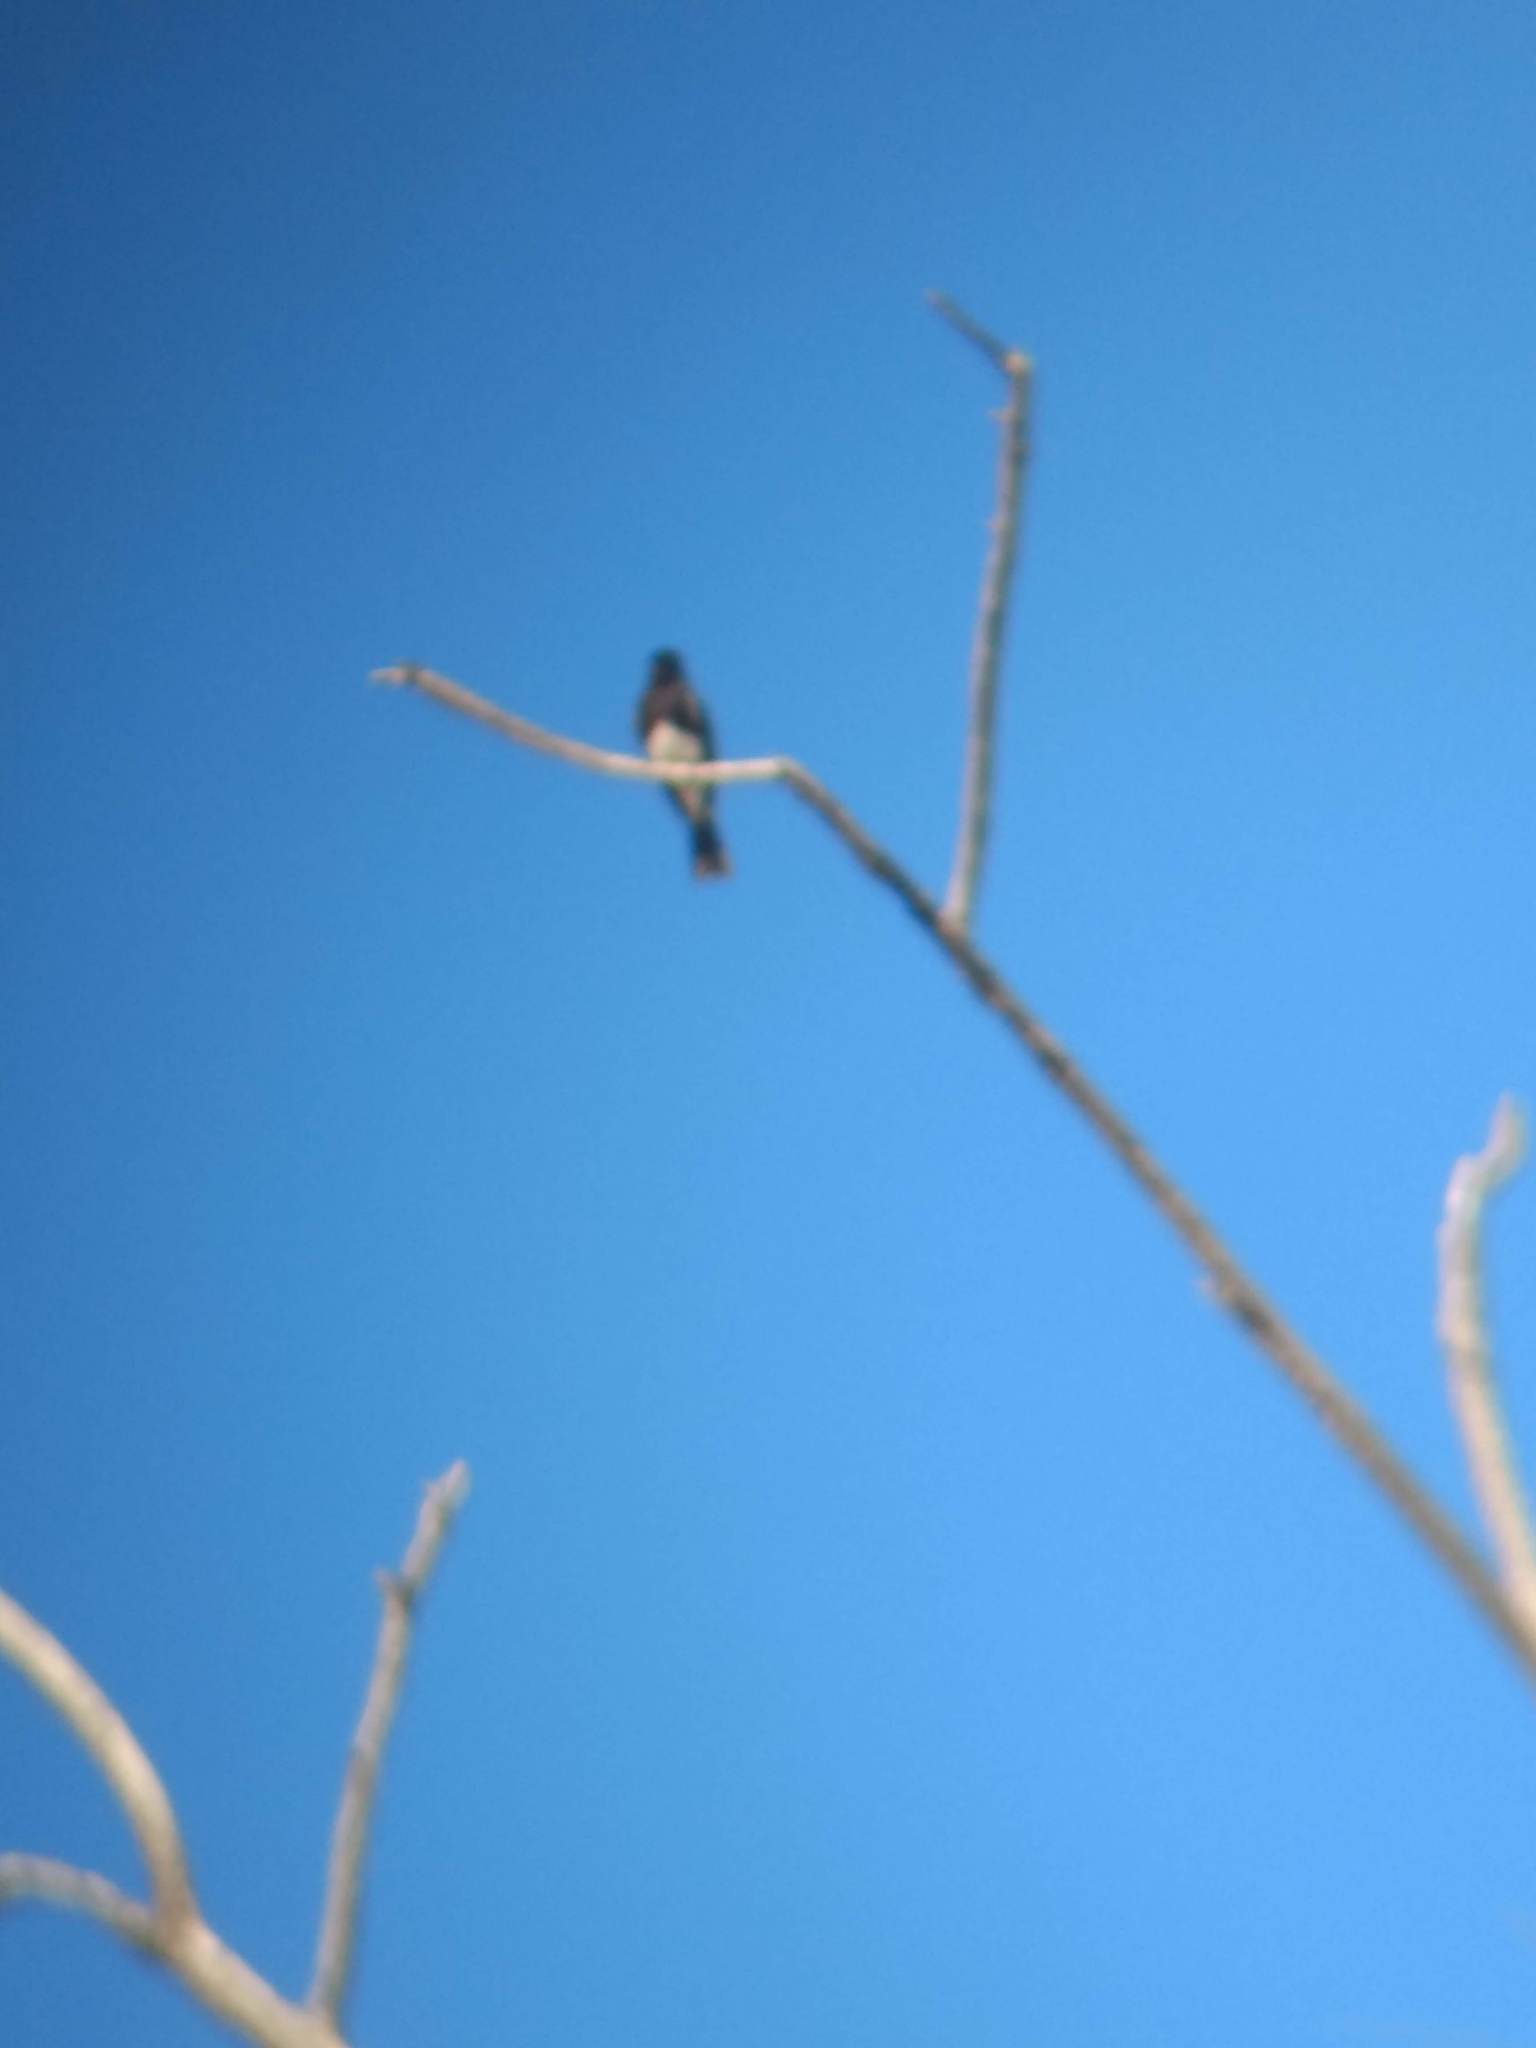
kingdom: Animalia
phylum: Chordata
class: Aves
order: Passeriformes
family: Tyrannidae
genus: Sayornis
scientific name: Sayornis nigricans
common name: Black phoebe
